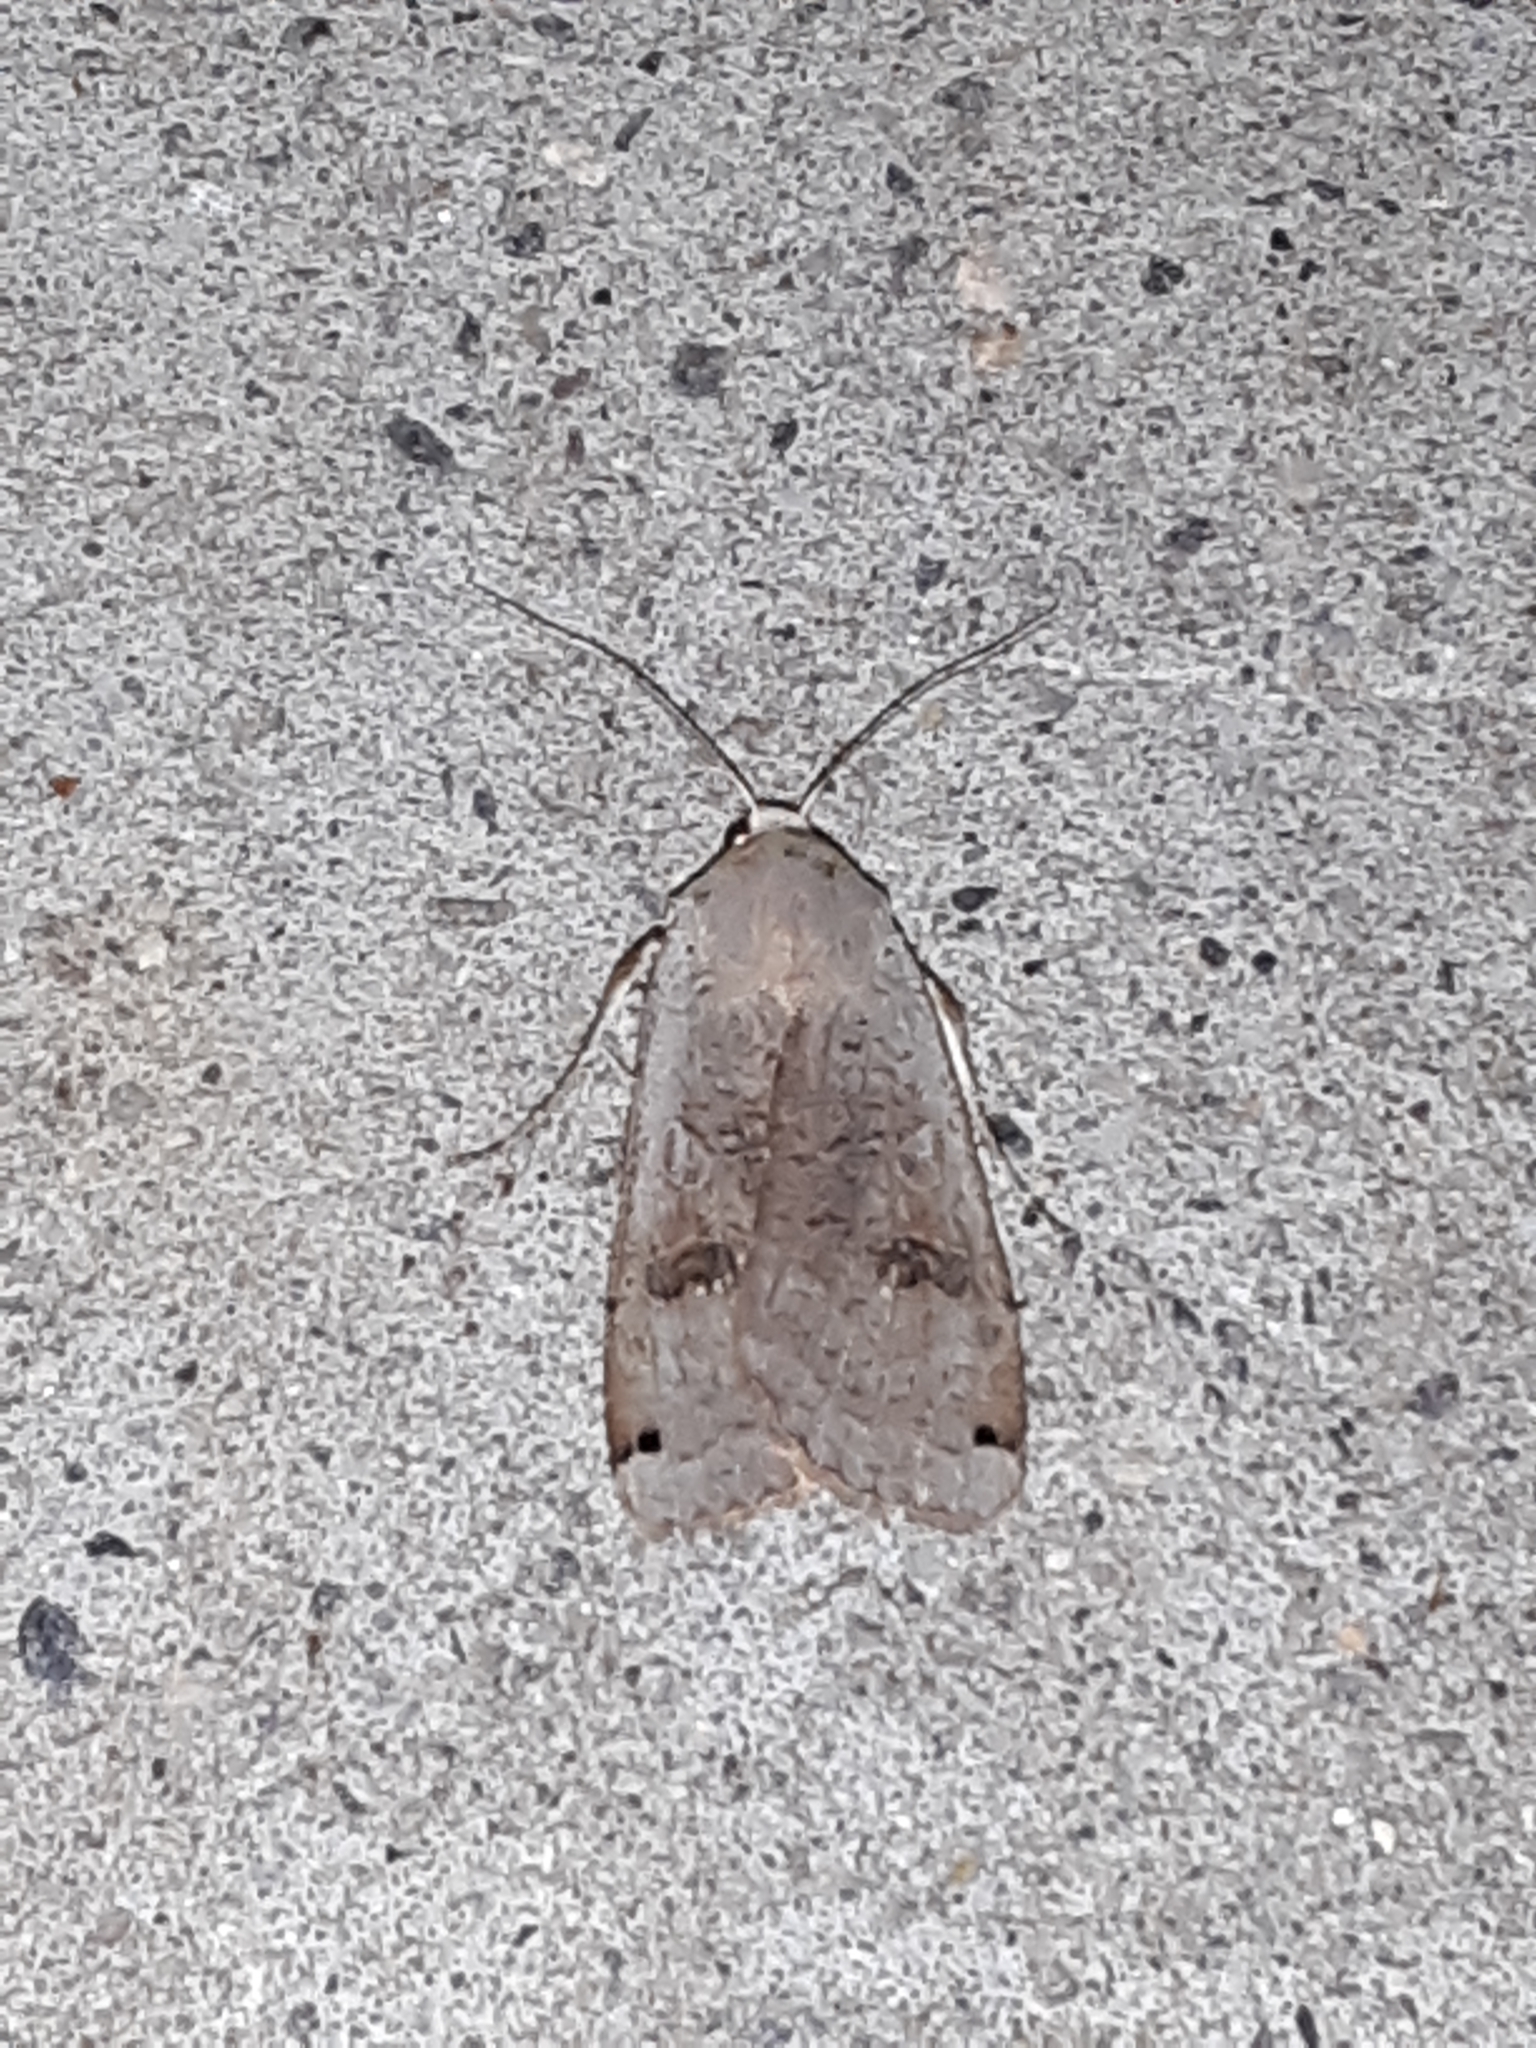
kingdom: Animalia
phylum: Arthropoda
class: Insecta
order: Lepidoptera
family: Noctuidae
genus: Noctua
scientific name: Noctua pronuba
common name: Large yellow underwing
